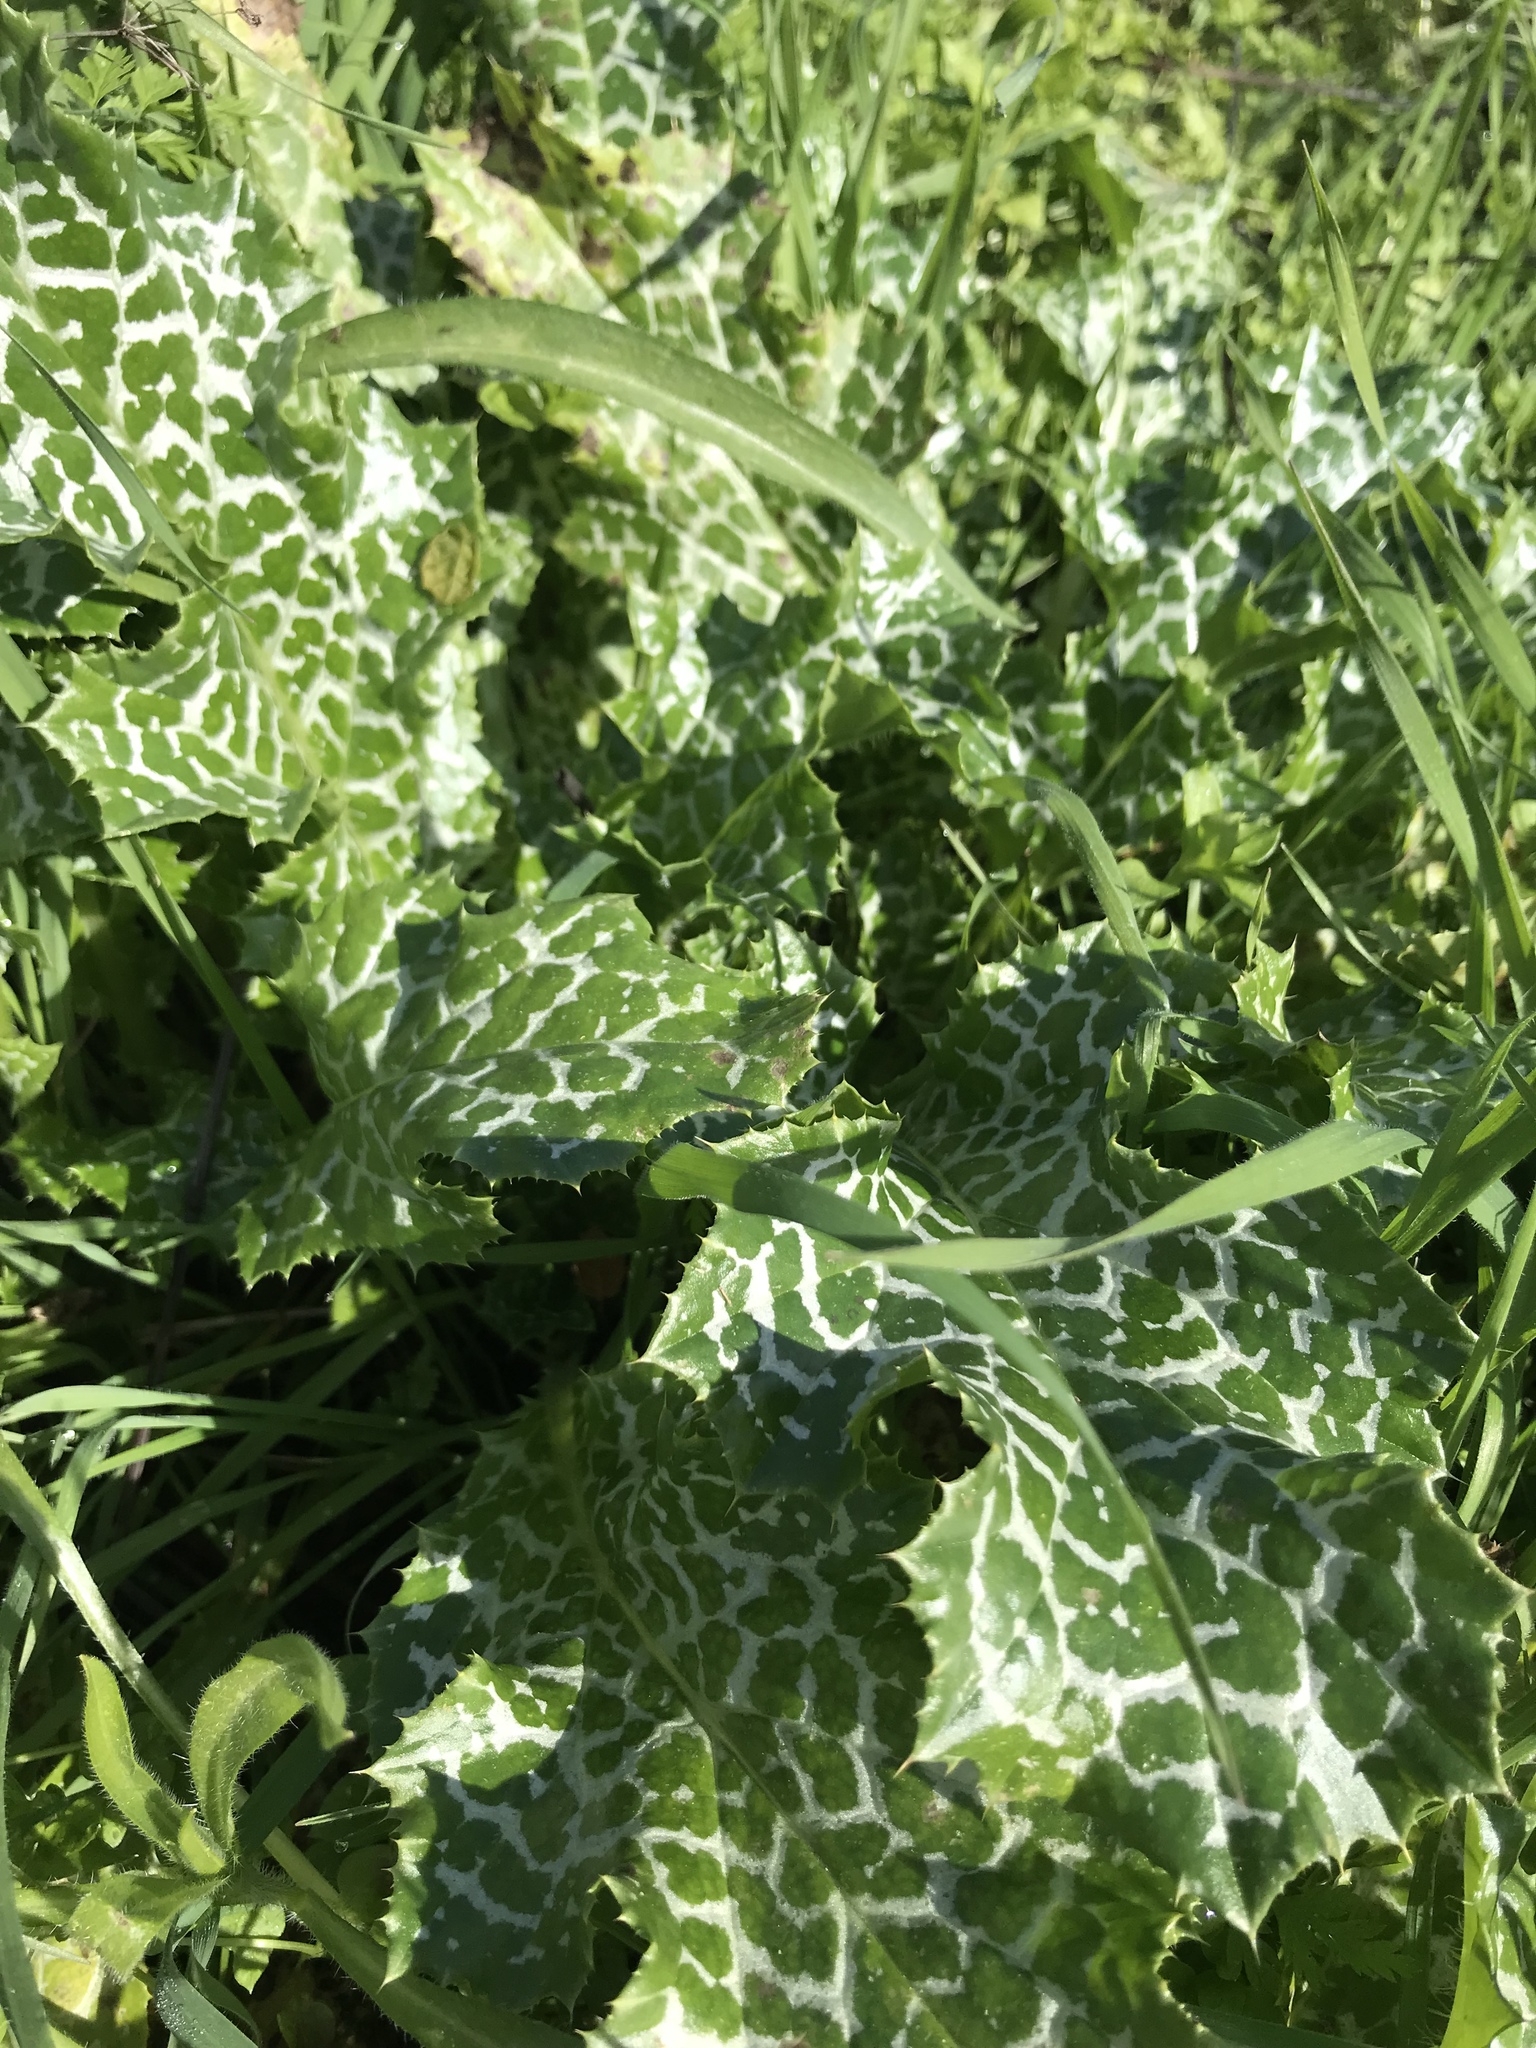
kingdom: Plantae
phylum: Tracheophyta
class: Magnoliopsida
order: Asterales
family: Asteraceae
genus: Silybum
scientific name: Silybum marianum
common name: Milk thistle
